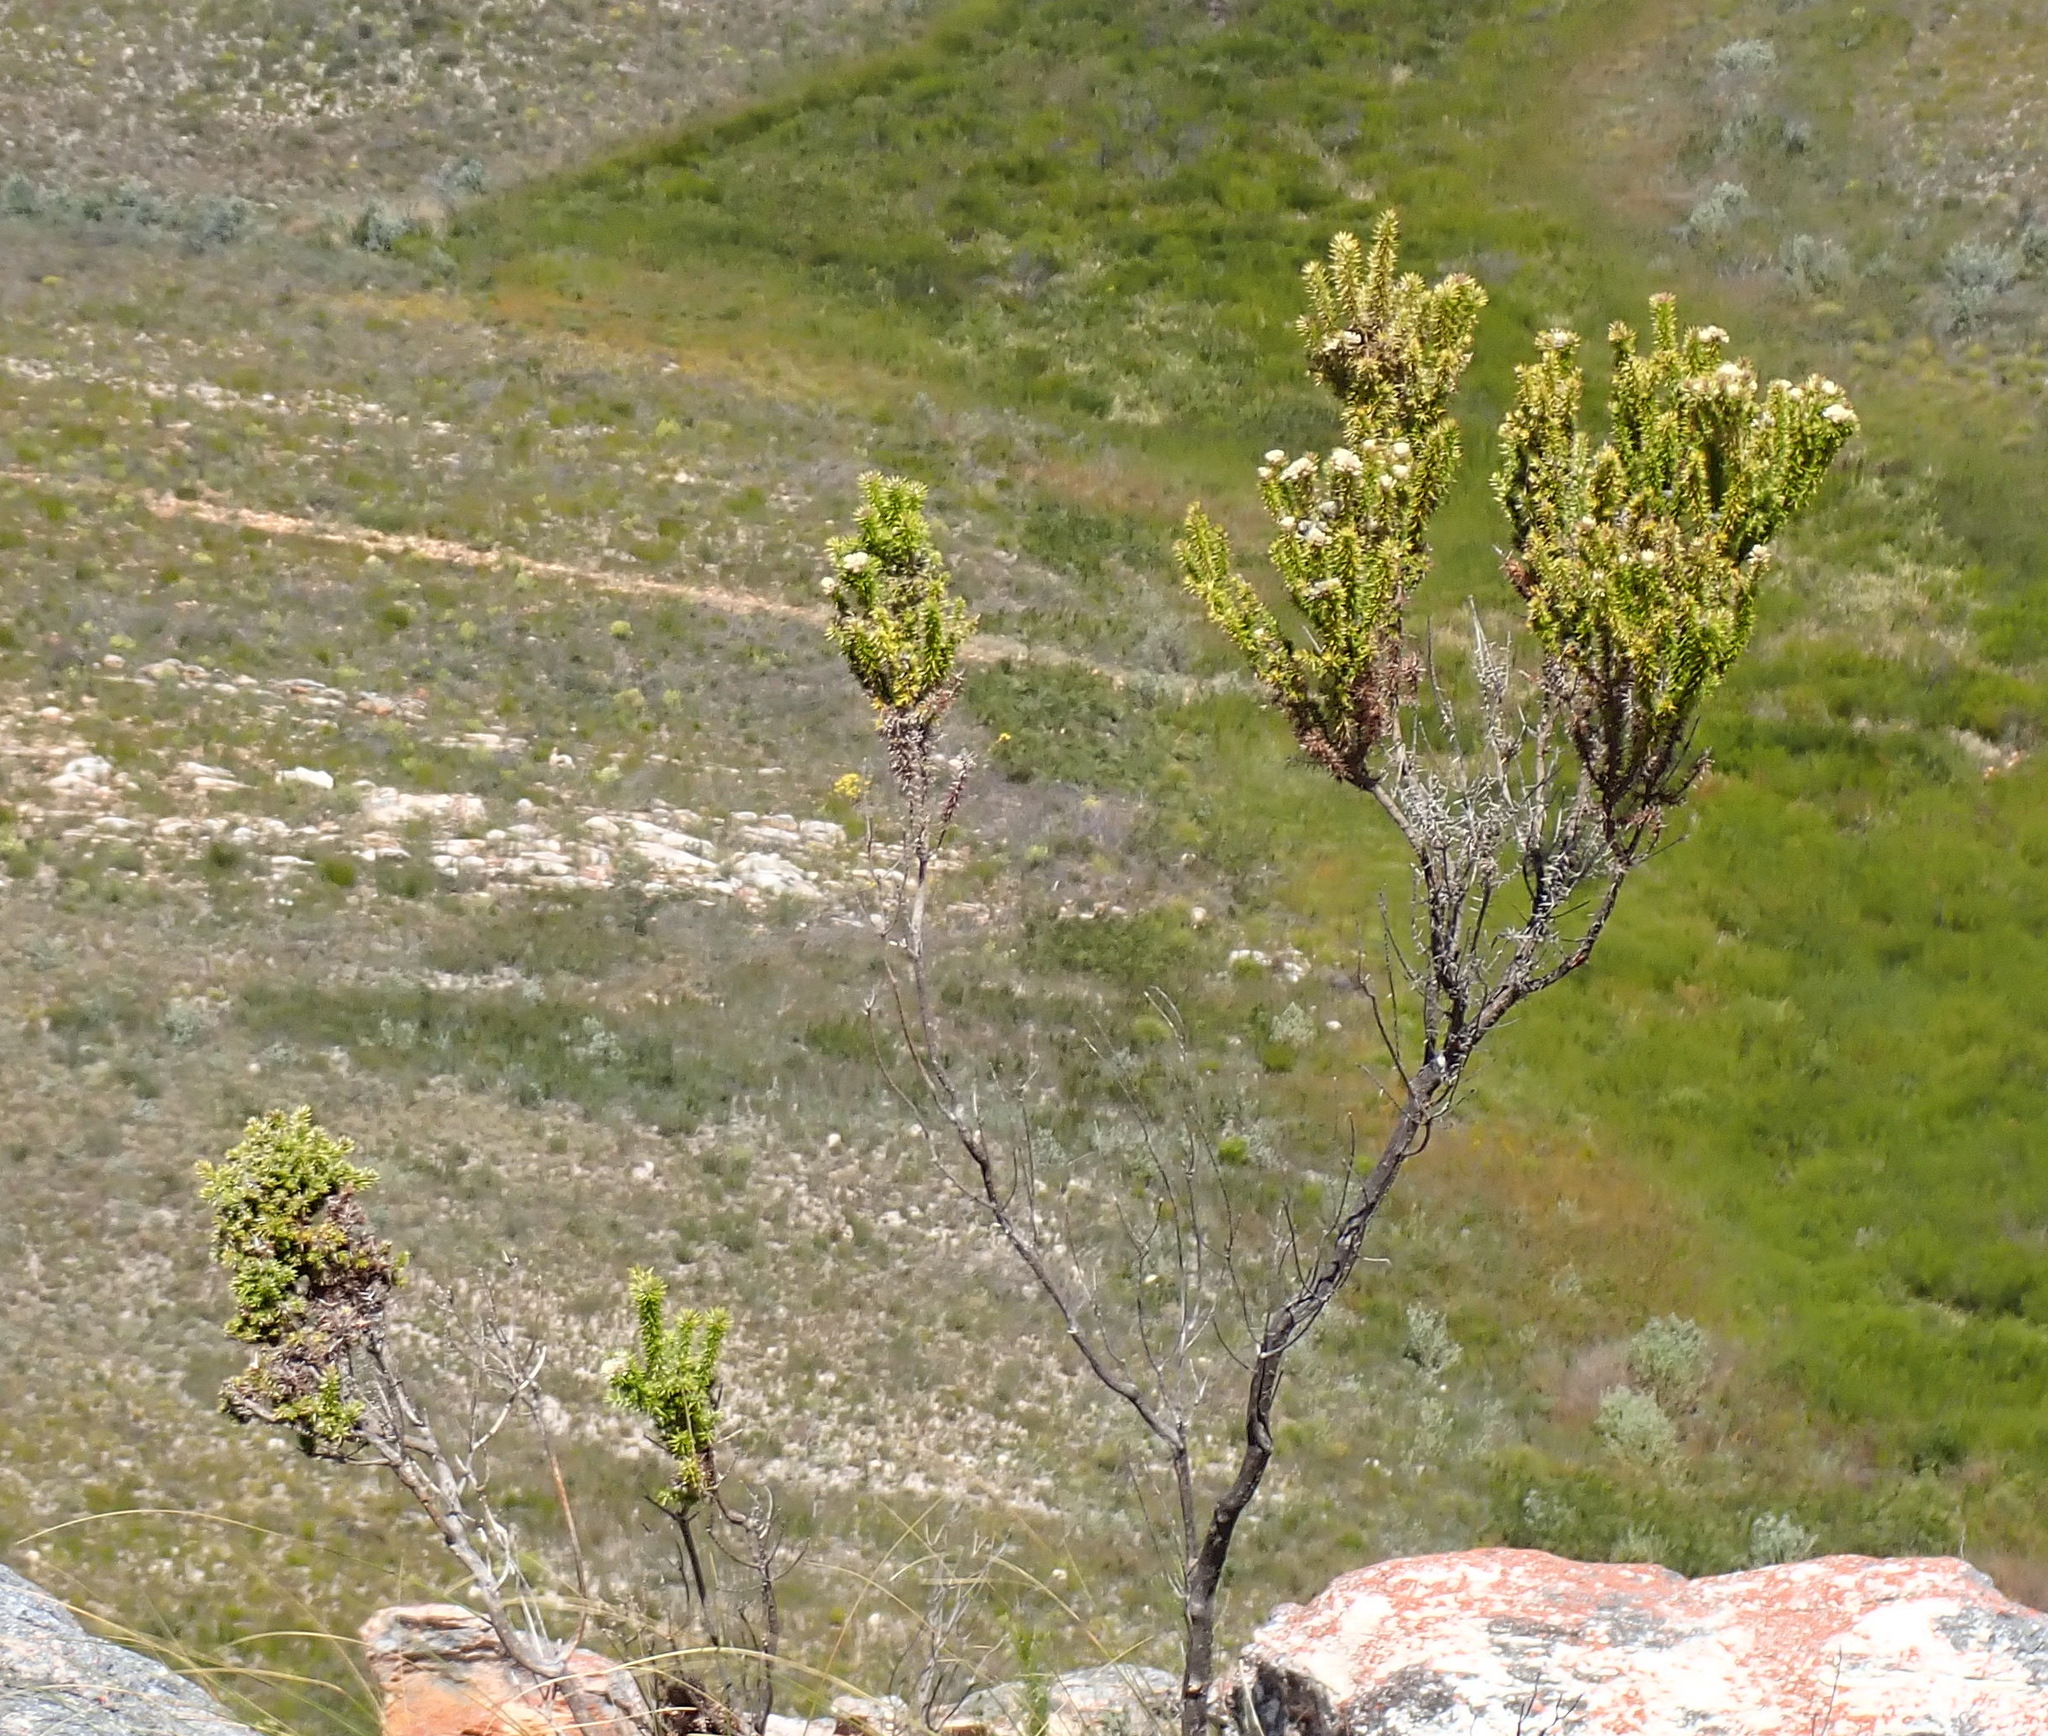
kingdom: Plantae
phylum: Tracheophyta
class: Magnoliopsida
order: Asterales
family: Asteraceae
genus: Metalasia
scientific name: Metalasia trivialis
